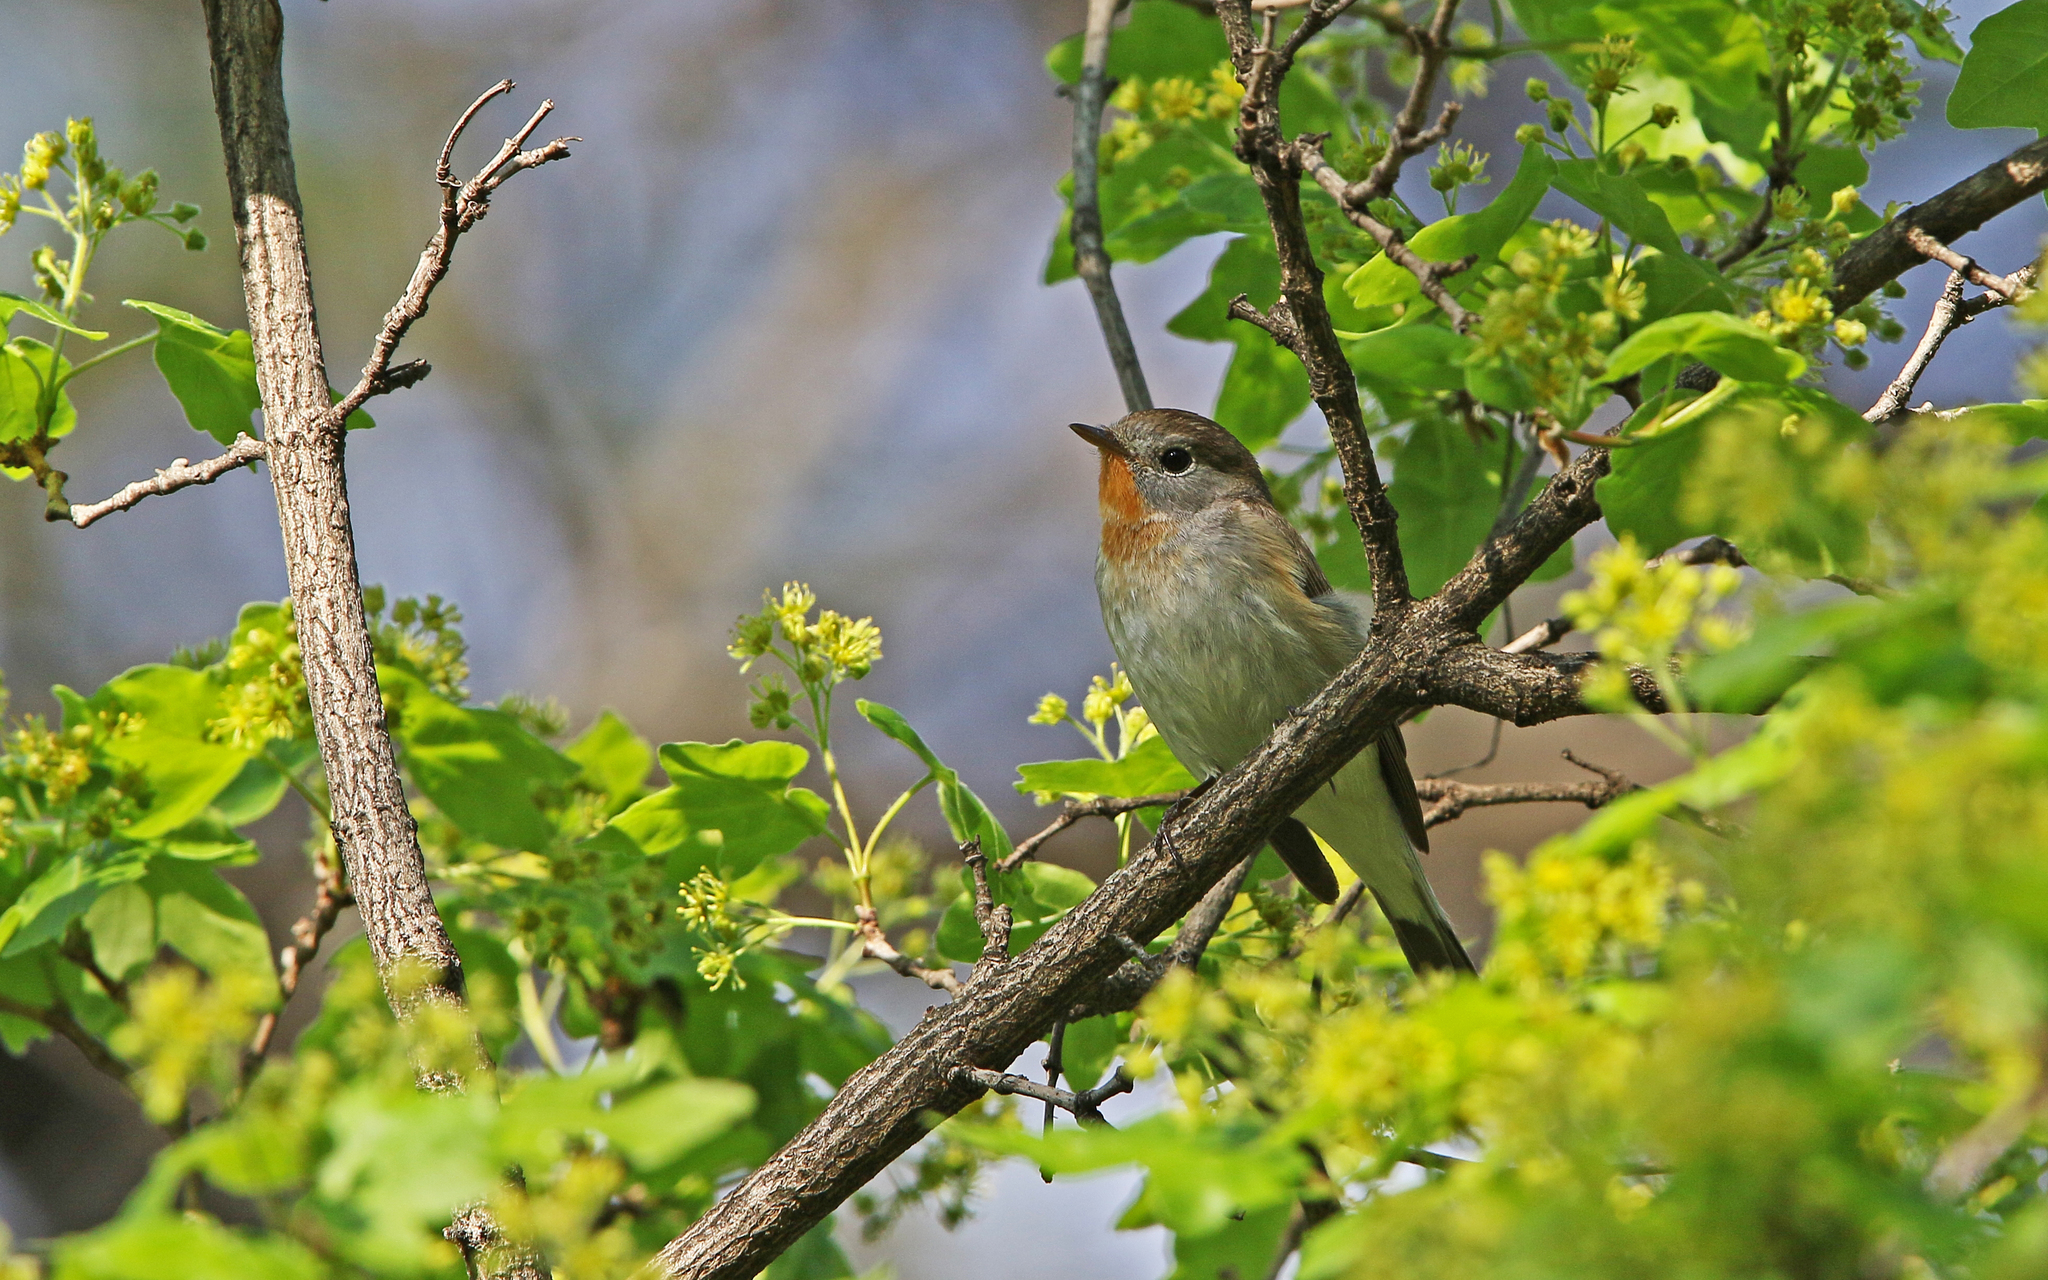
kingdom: Animalia
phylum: Chordata
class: Aves
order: Passeriformes
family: Muscicapidae
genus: Ficedula
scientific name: Ficedula parva
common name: Red-breasted flycatcher
